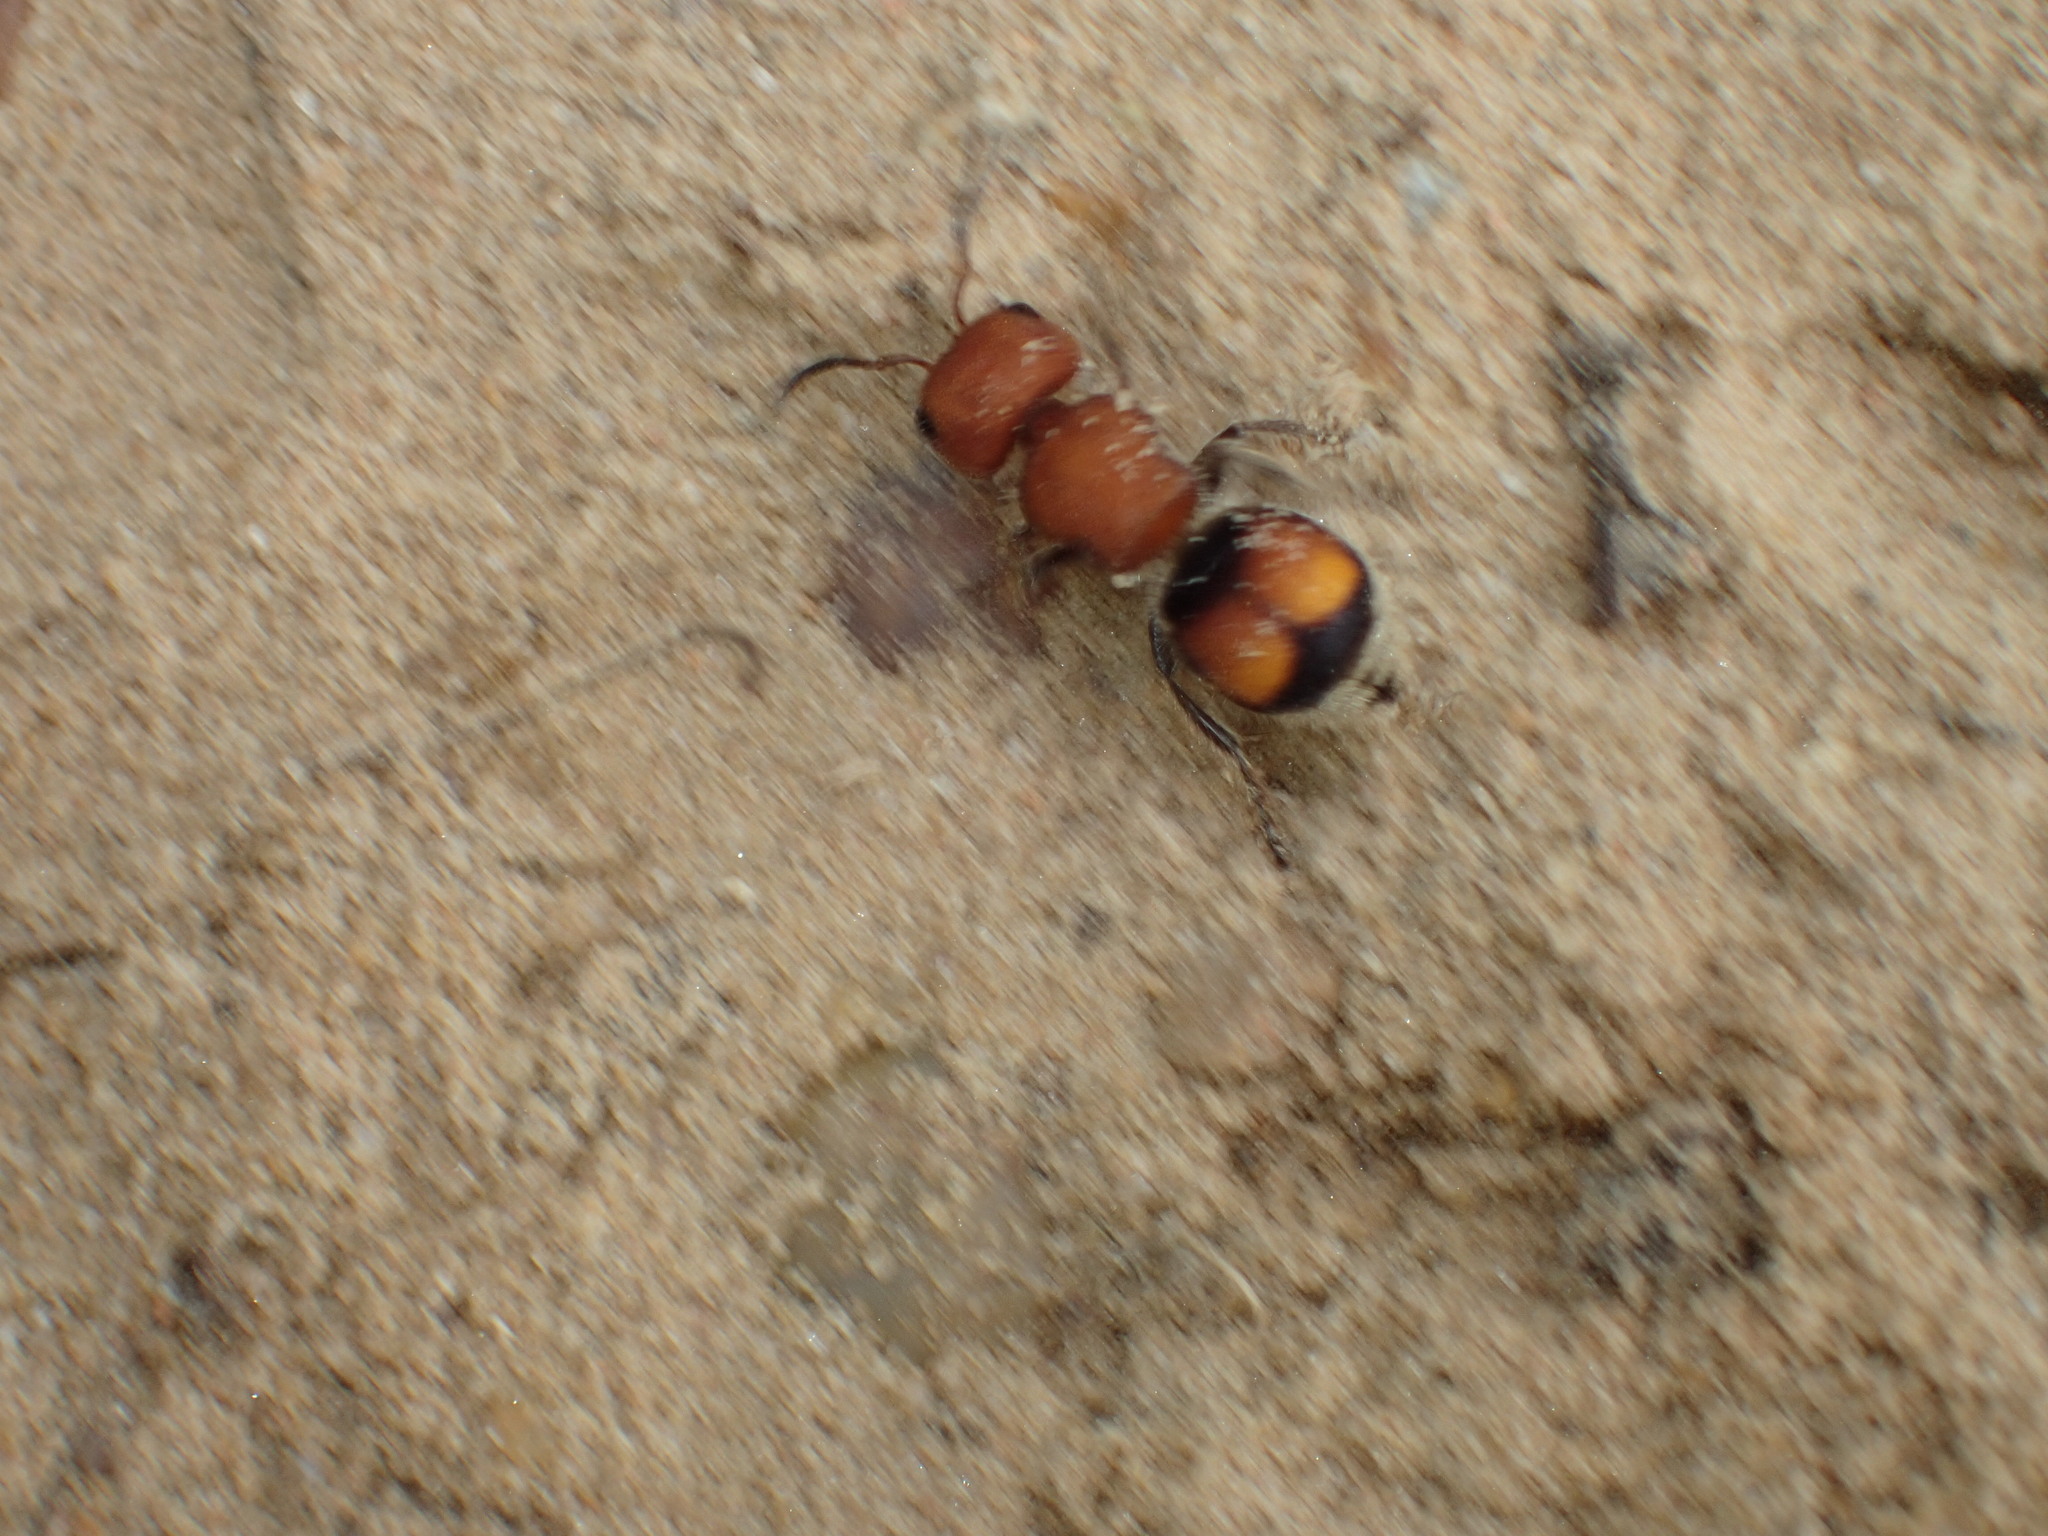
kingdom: Animalia
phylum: Arthropoda
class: Insecta
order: Hymenoptera
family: Mutillidae
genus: Pseudomethoca
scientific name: Pseudomethoca
